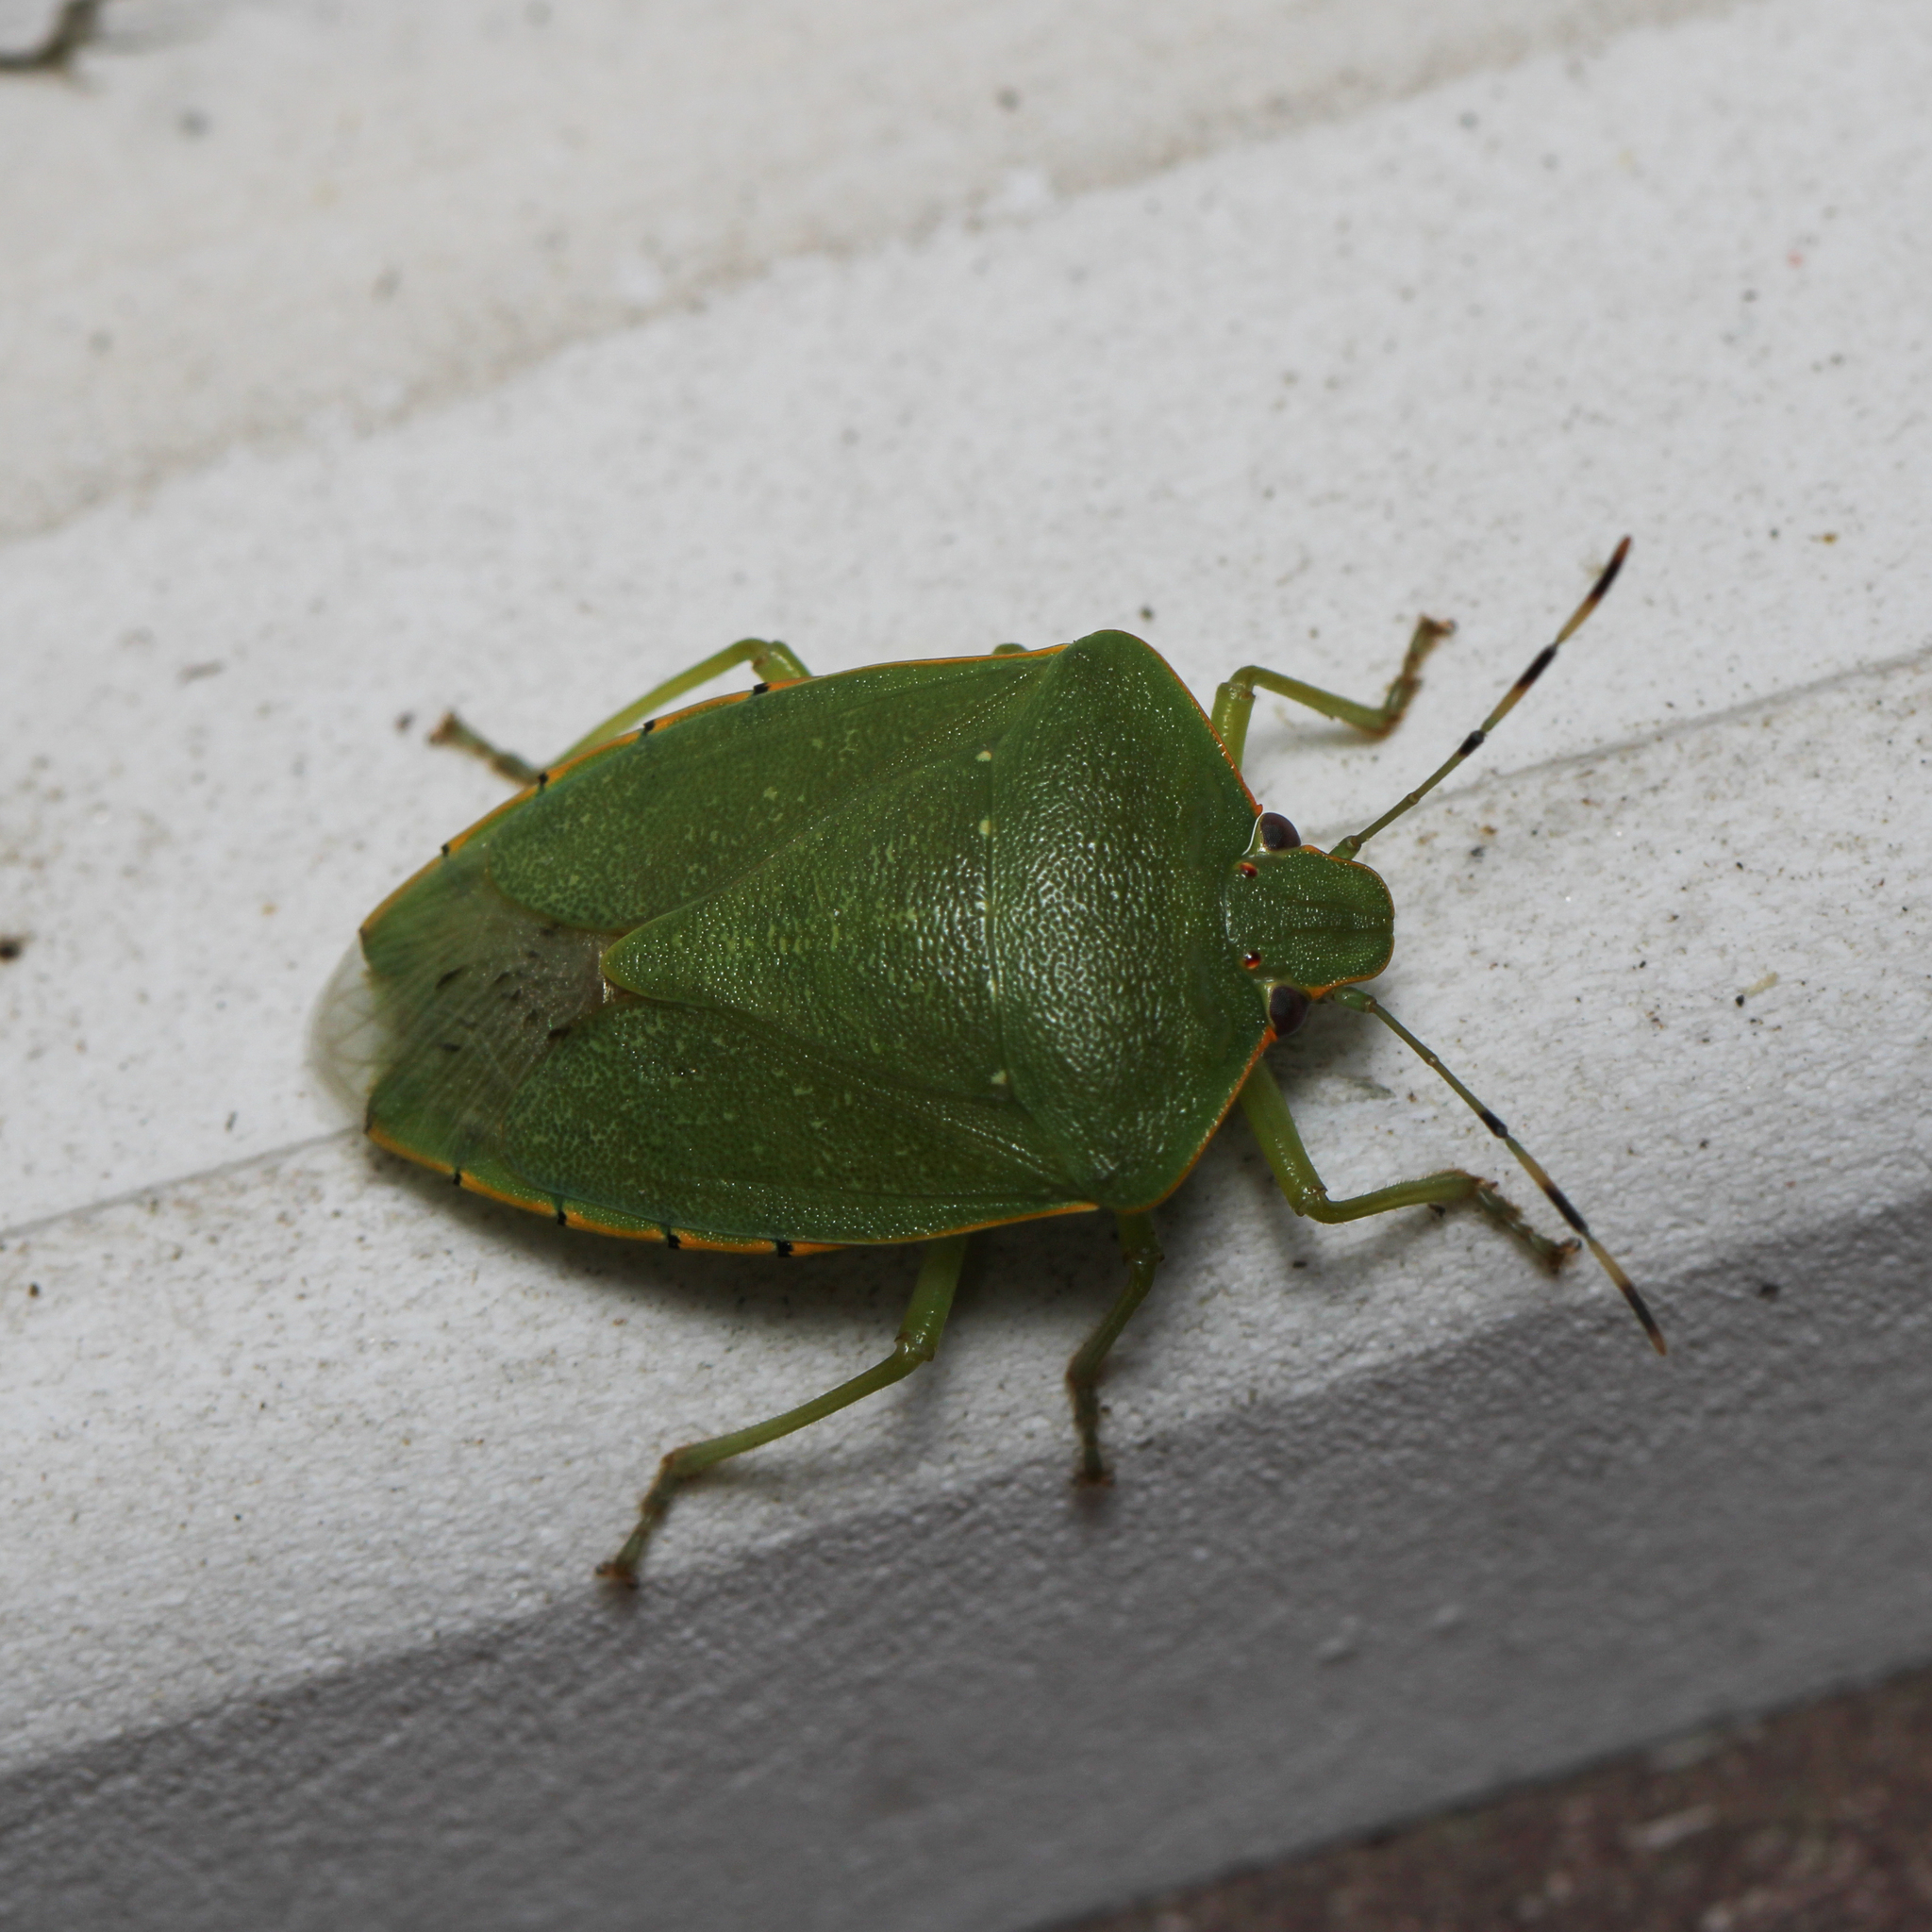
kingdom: Animalia
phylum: Arthropoda
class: Insecta
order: Hemiptera
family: Pentatomidae
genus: Chinavia
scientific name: Chinavia hilaris
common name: Green stink bug
